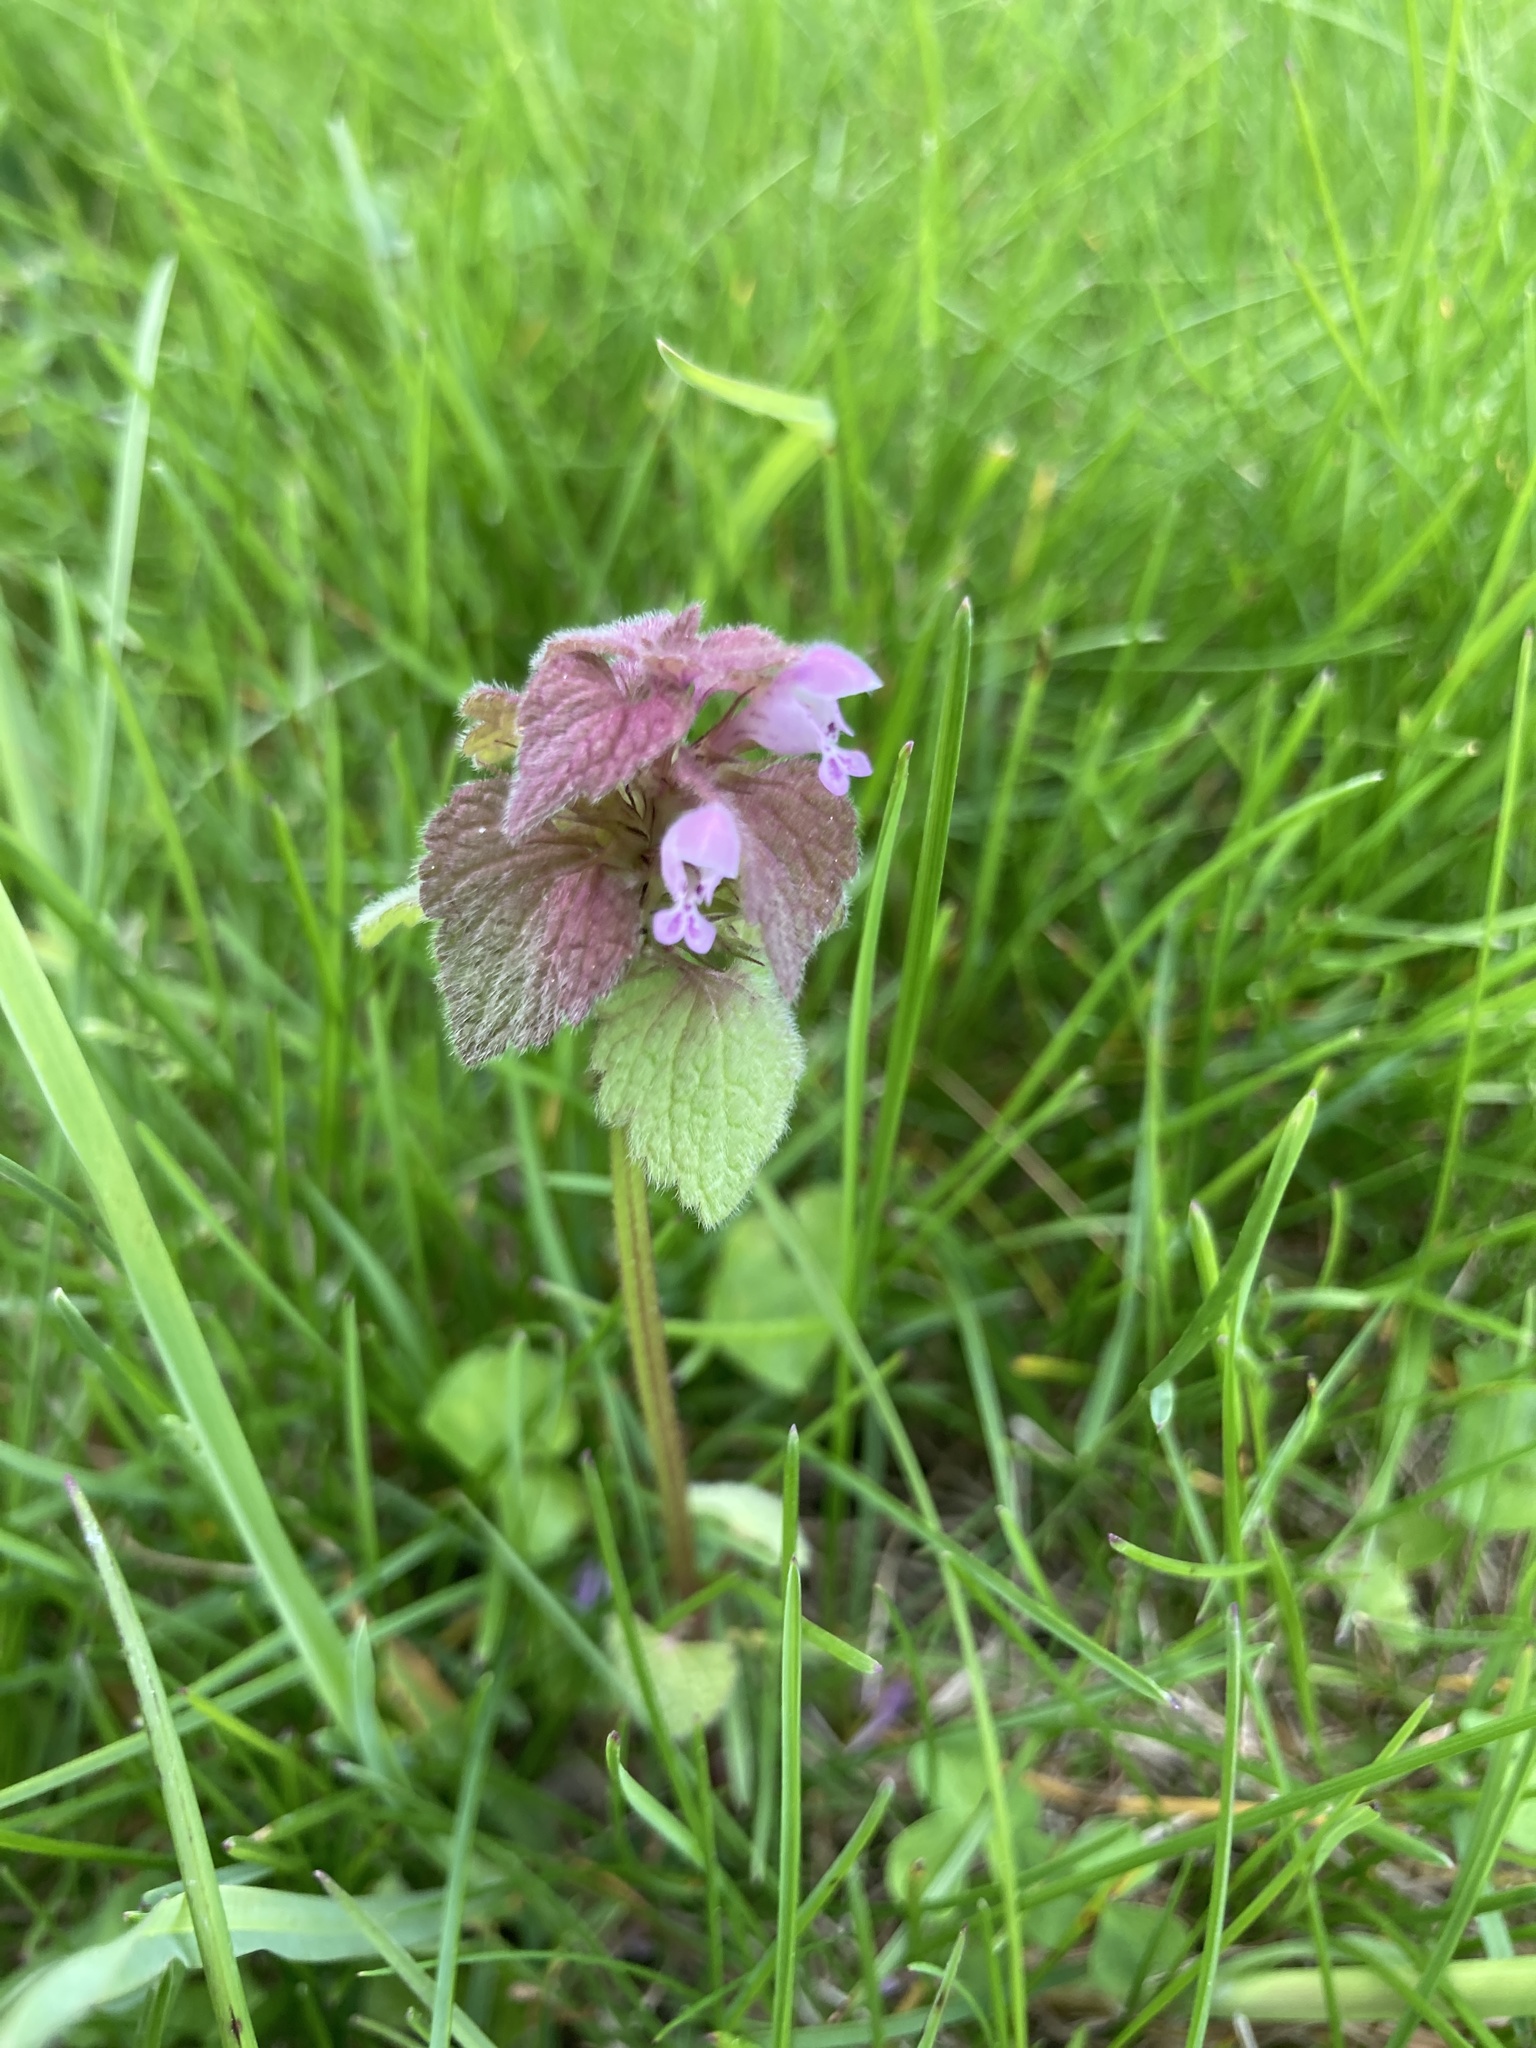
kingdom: Plantae
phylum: Tracheophyta
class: Magnoliopsida
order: Lamiales
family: Lamiaceae
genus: Lamium
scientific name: Lamium purpureum
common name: Red dead-nettle
